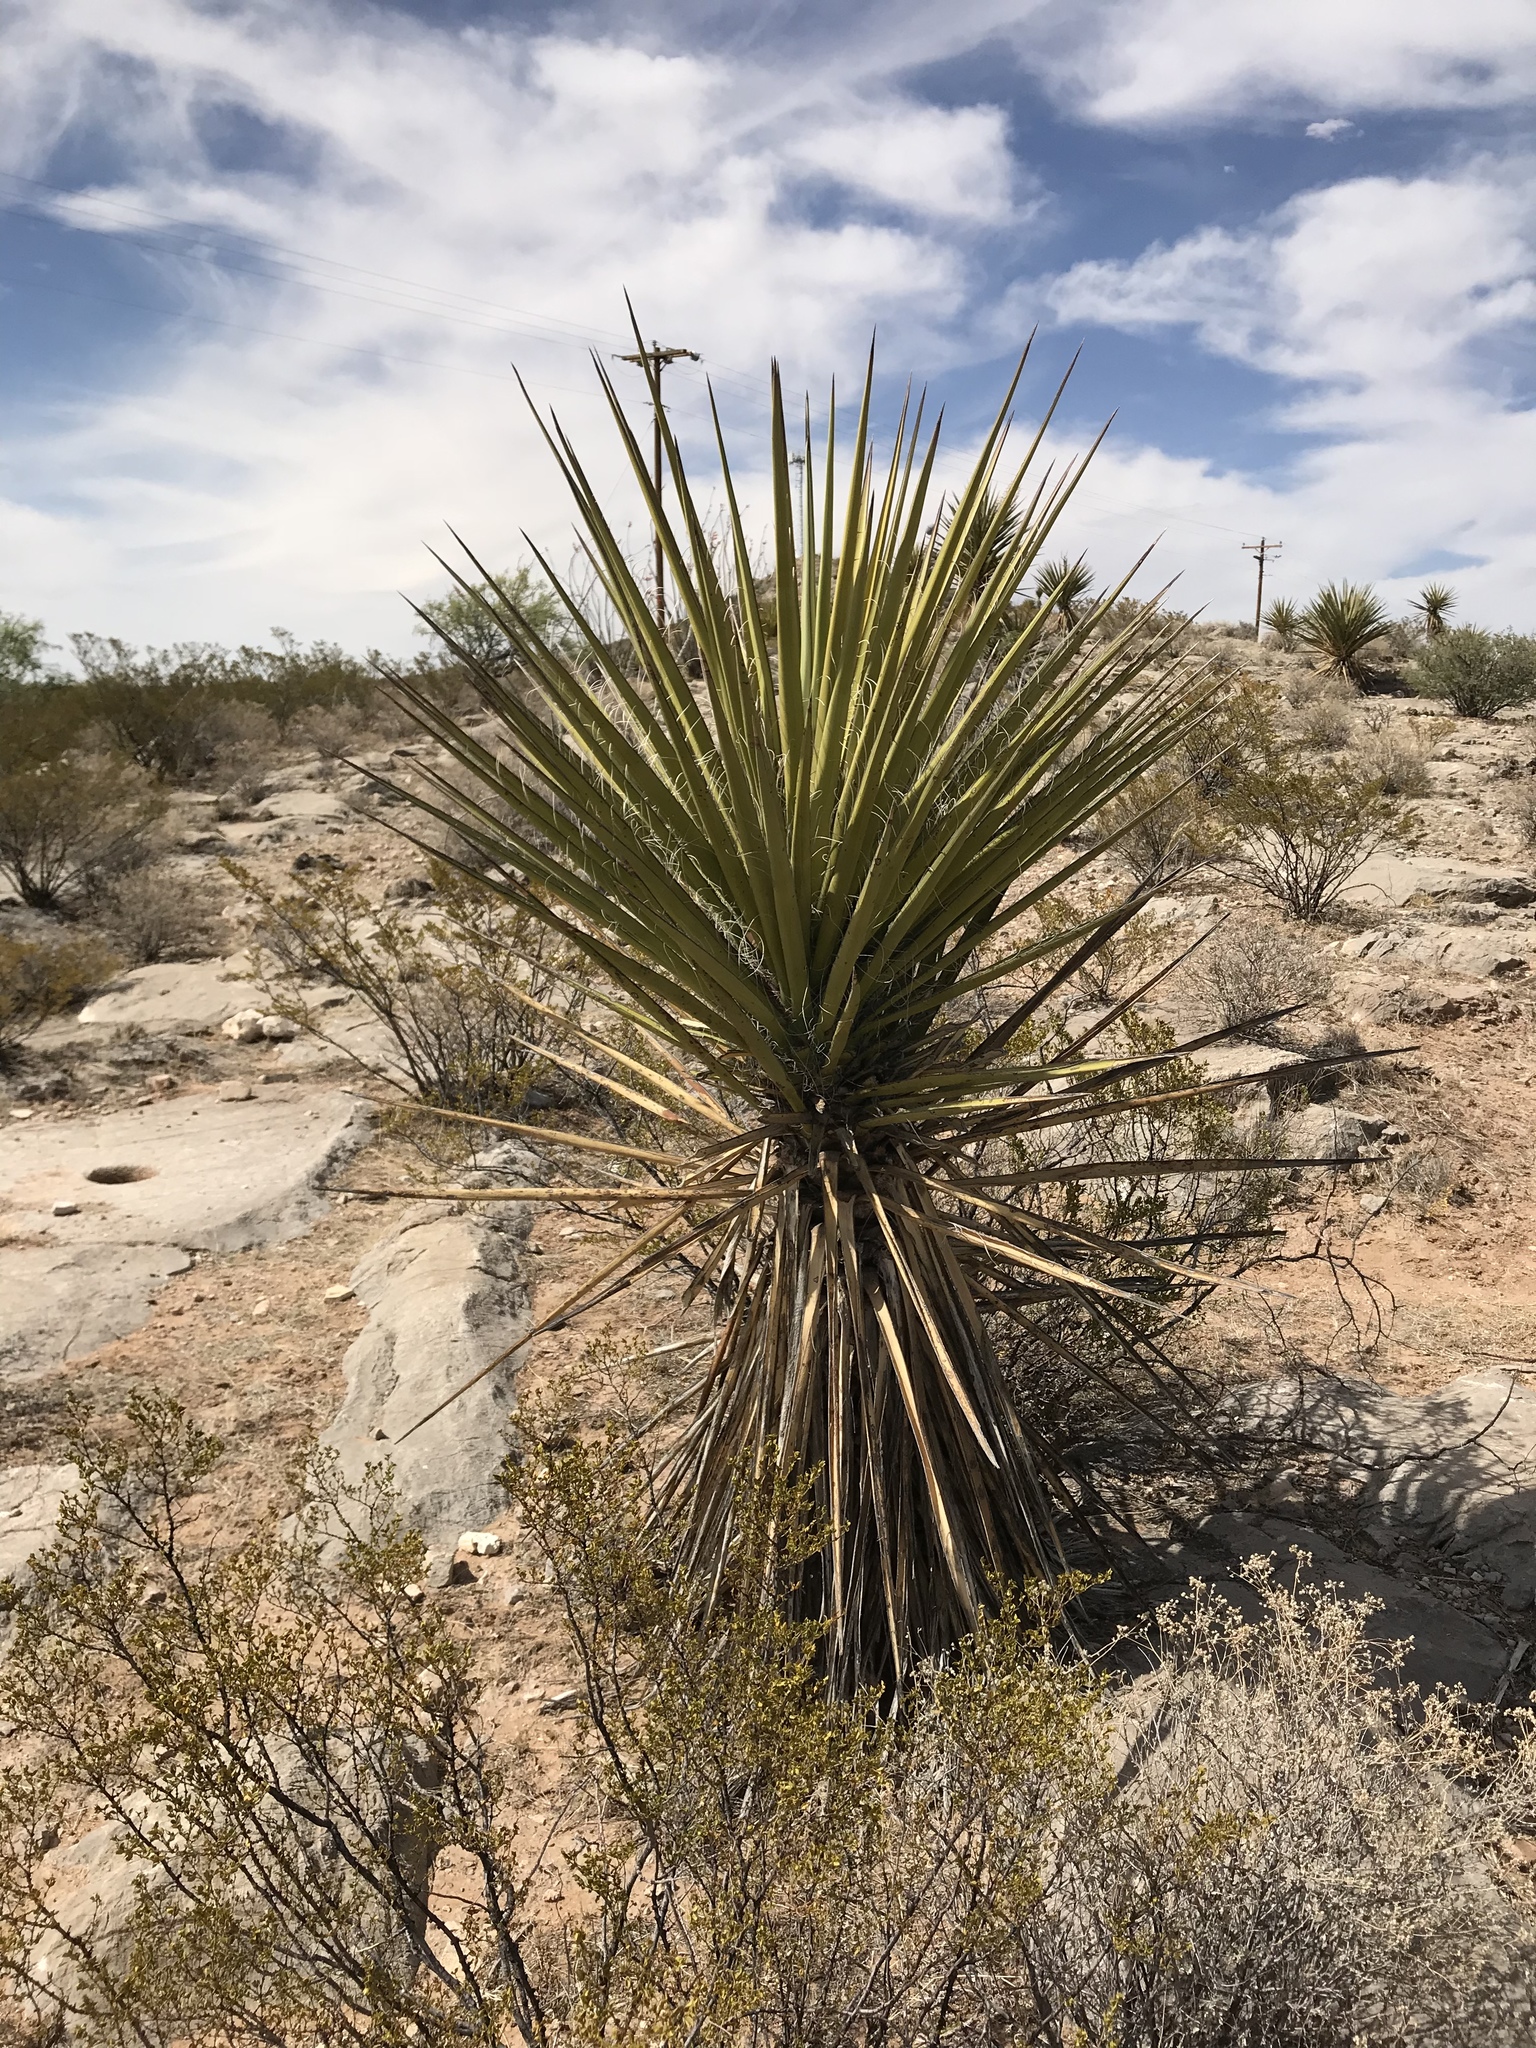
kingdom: Plantae
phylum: Tracheophyta
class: Liliopsida
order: Asparagales
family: Asparagaceae
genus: Yucca
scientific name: Yucca elata
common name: Palmella
